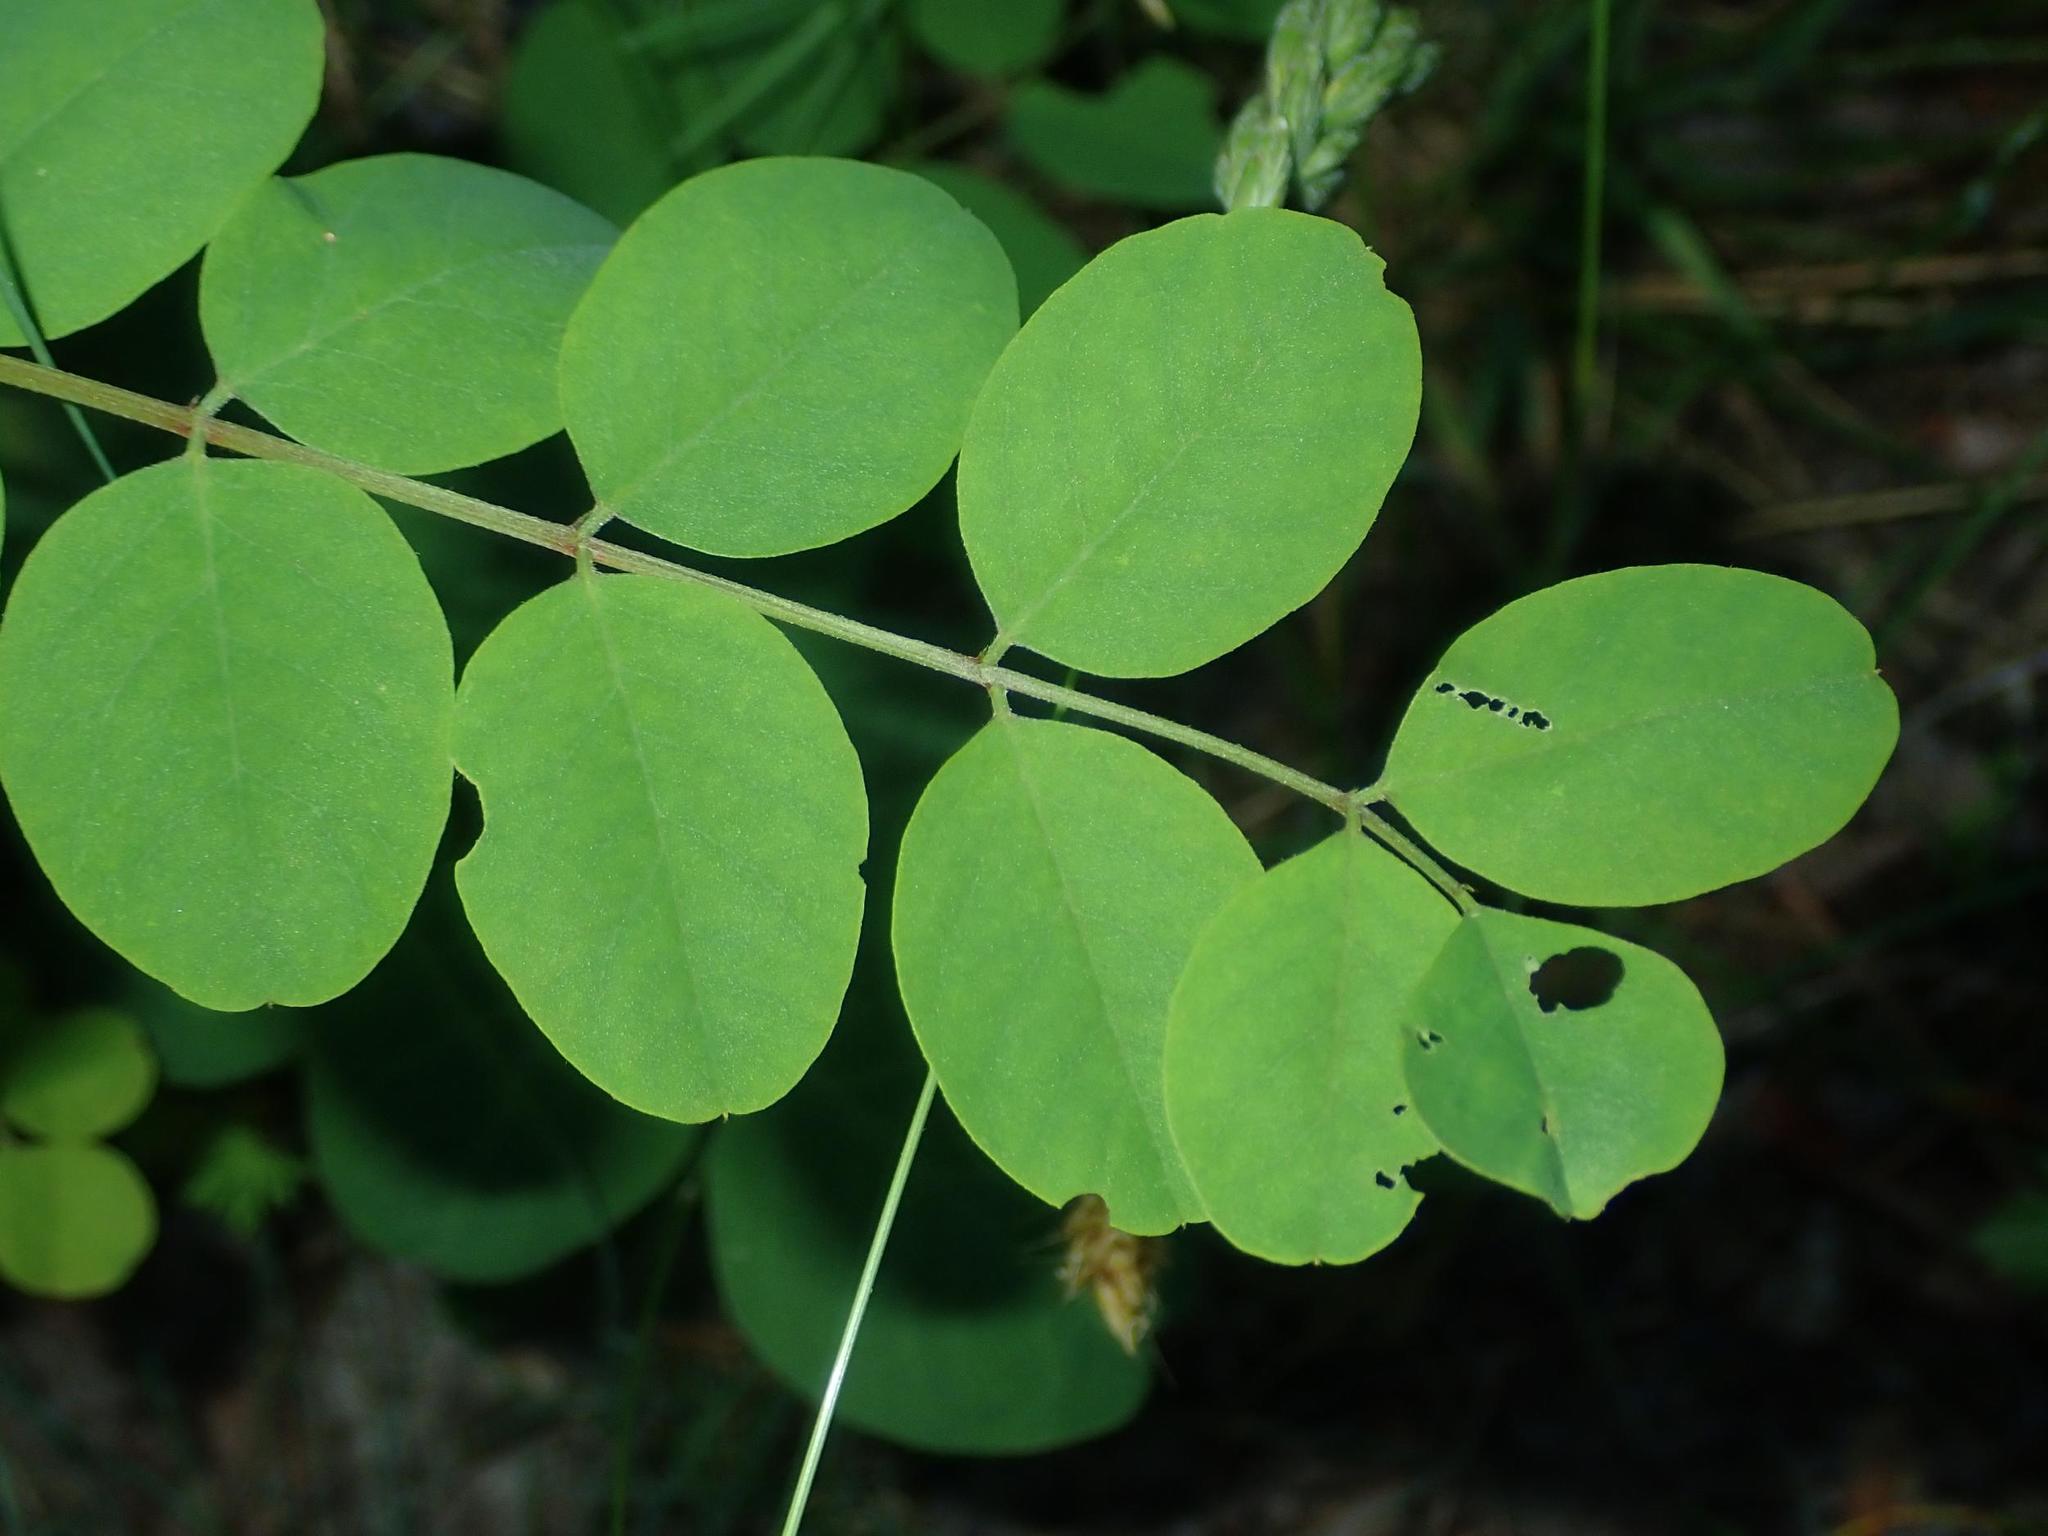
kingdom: Plantae
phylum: Tracheophyta
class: Magnoliopsida
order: Fabales
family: Fabaceae
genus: Robinia
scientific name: Robinia pseudoacacia
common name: Black locust
